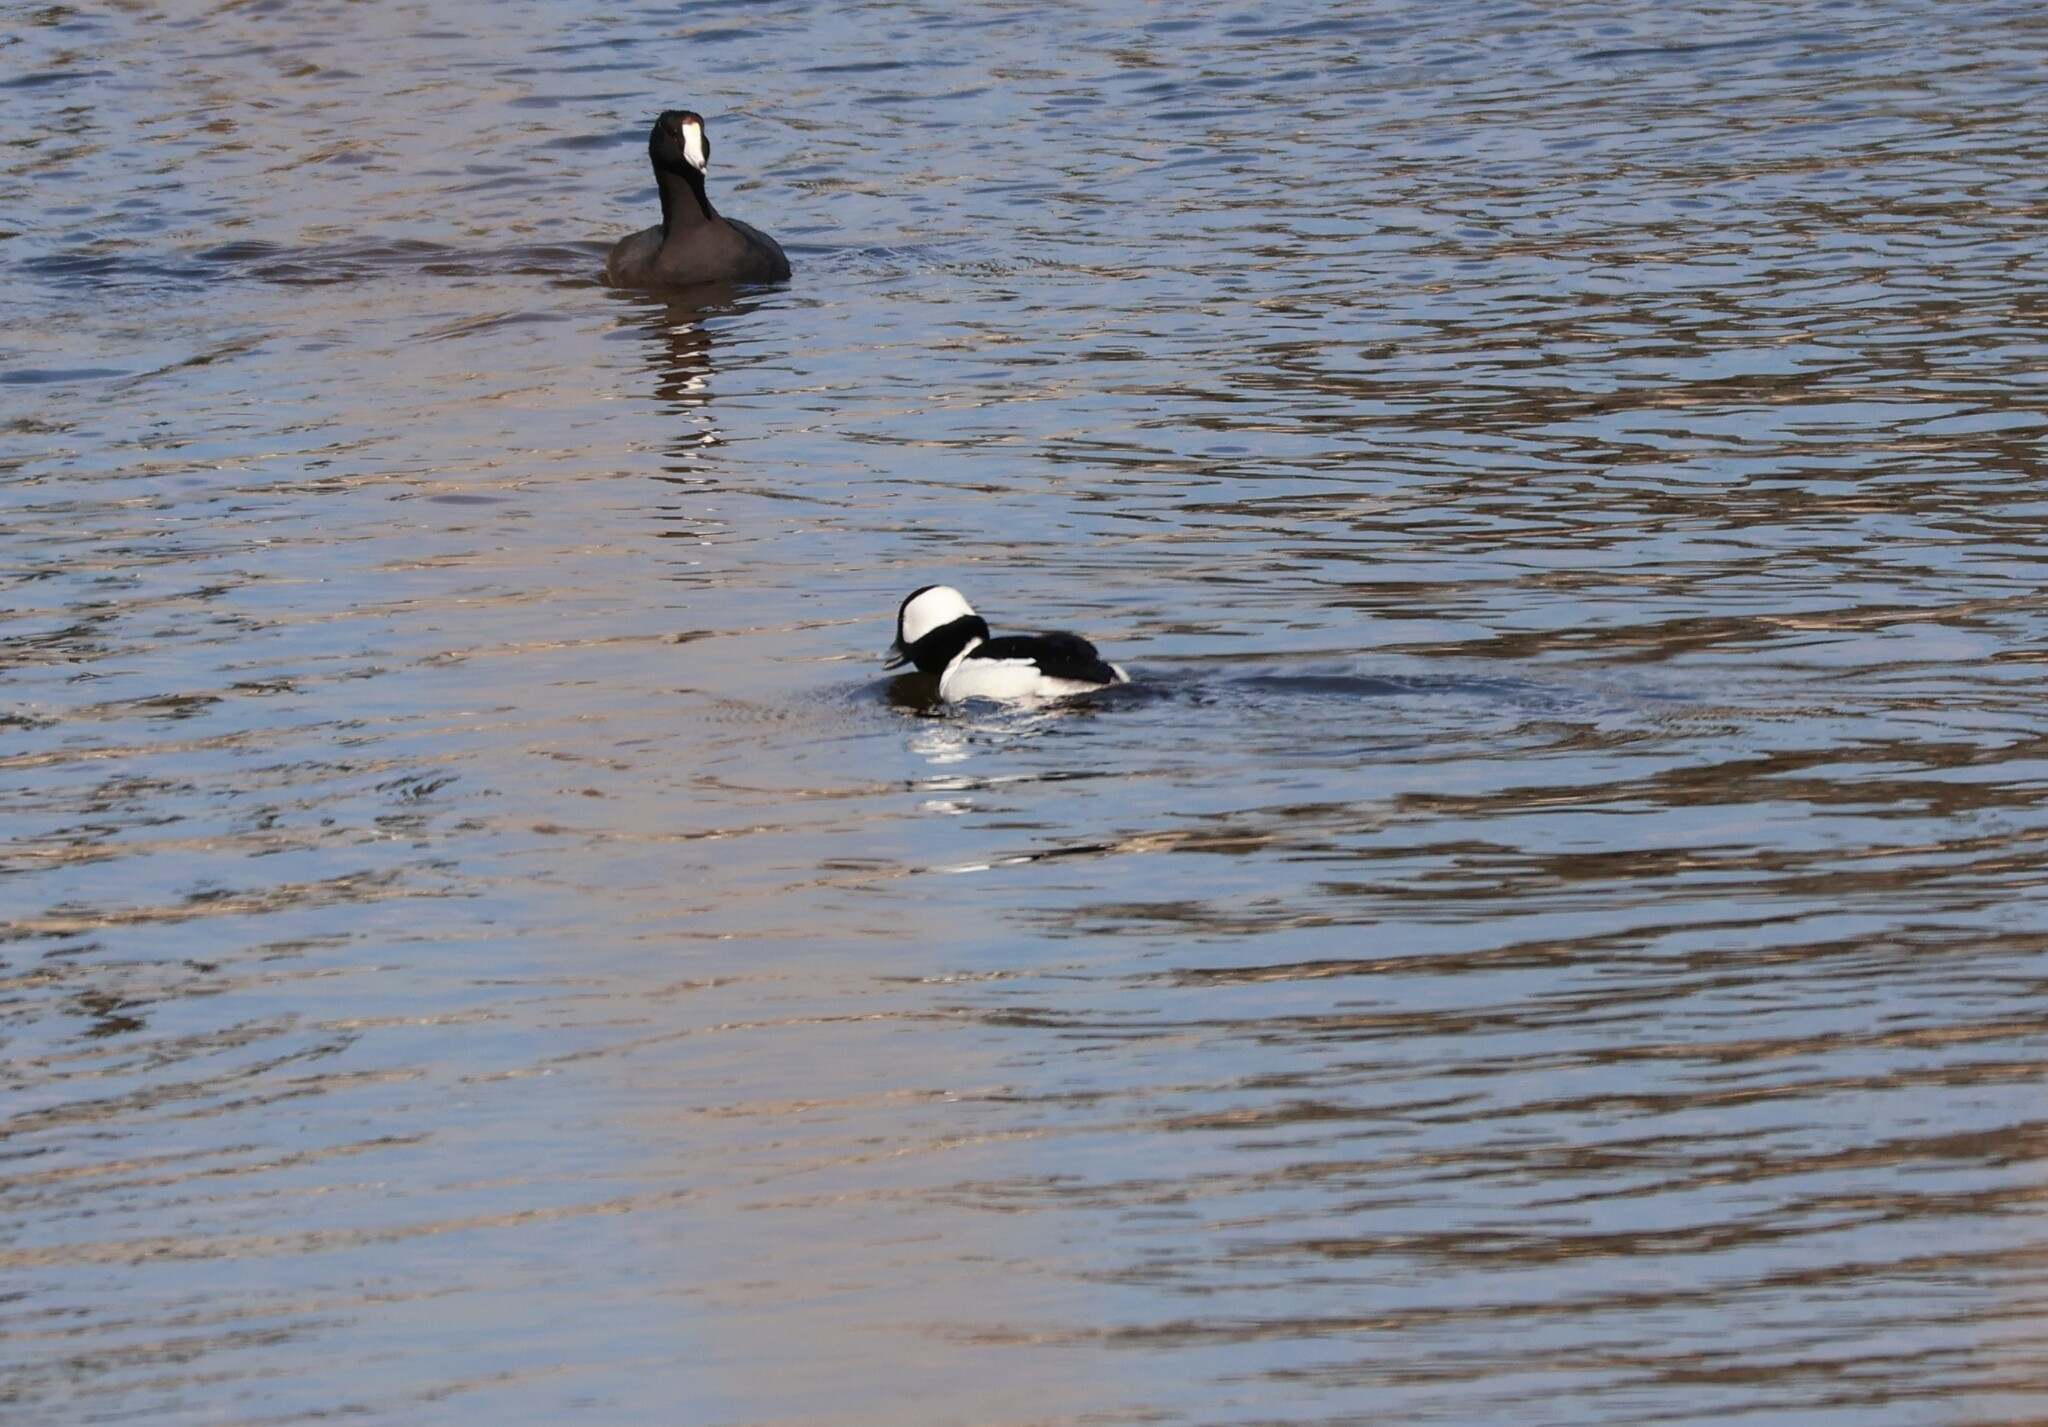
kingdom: Animalia
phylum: Chordata
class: Aves
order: Anseriformes
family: Anatidae
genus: Bucephala
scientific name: Bucephala albeola
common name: Bufflehead
